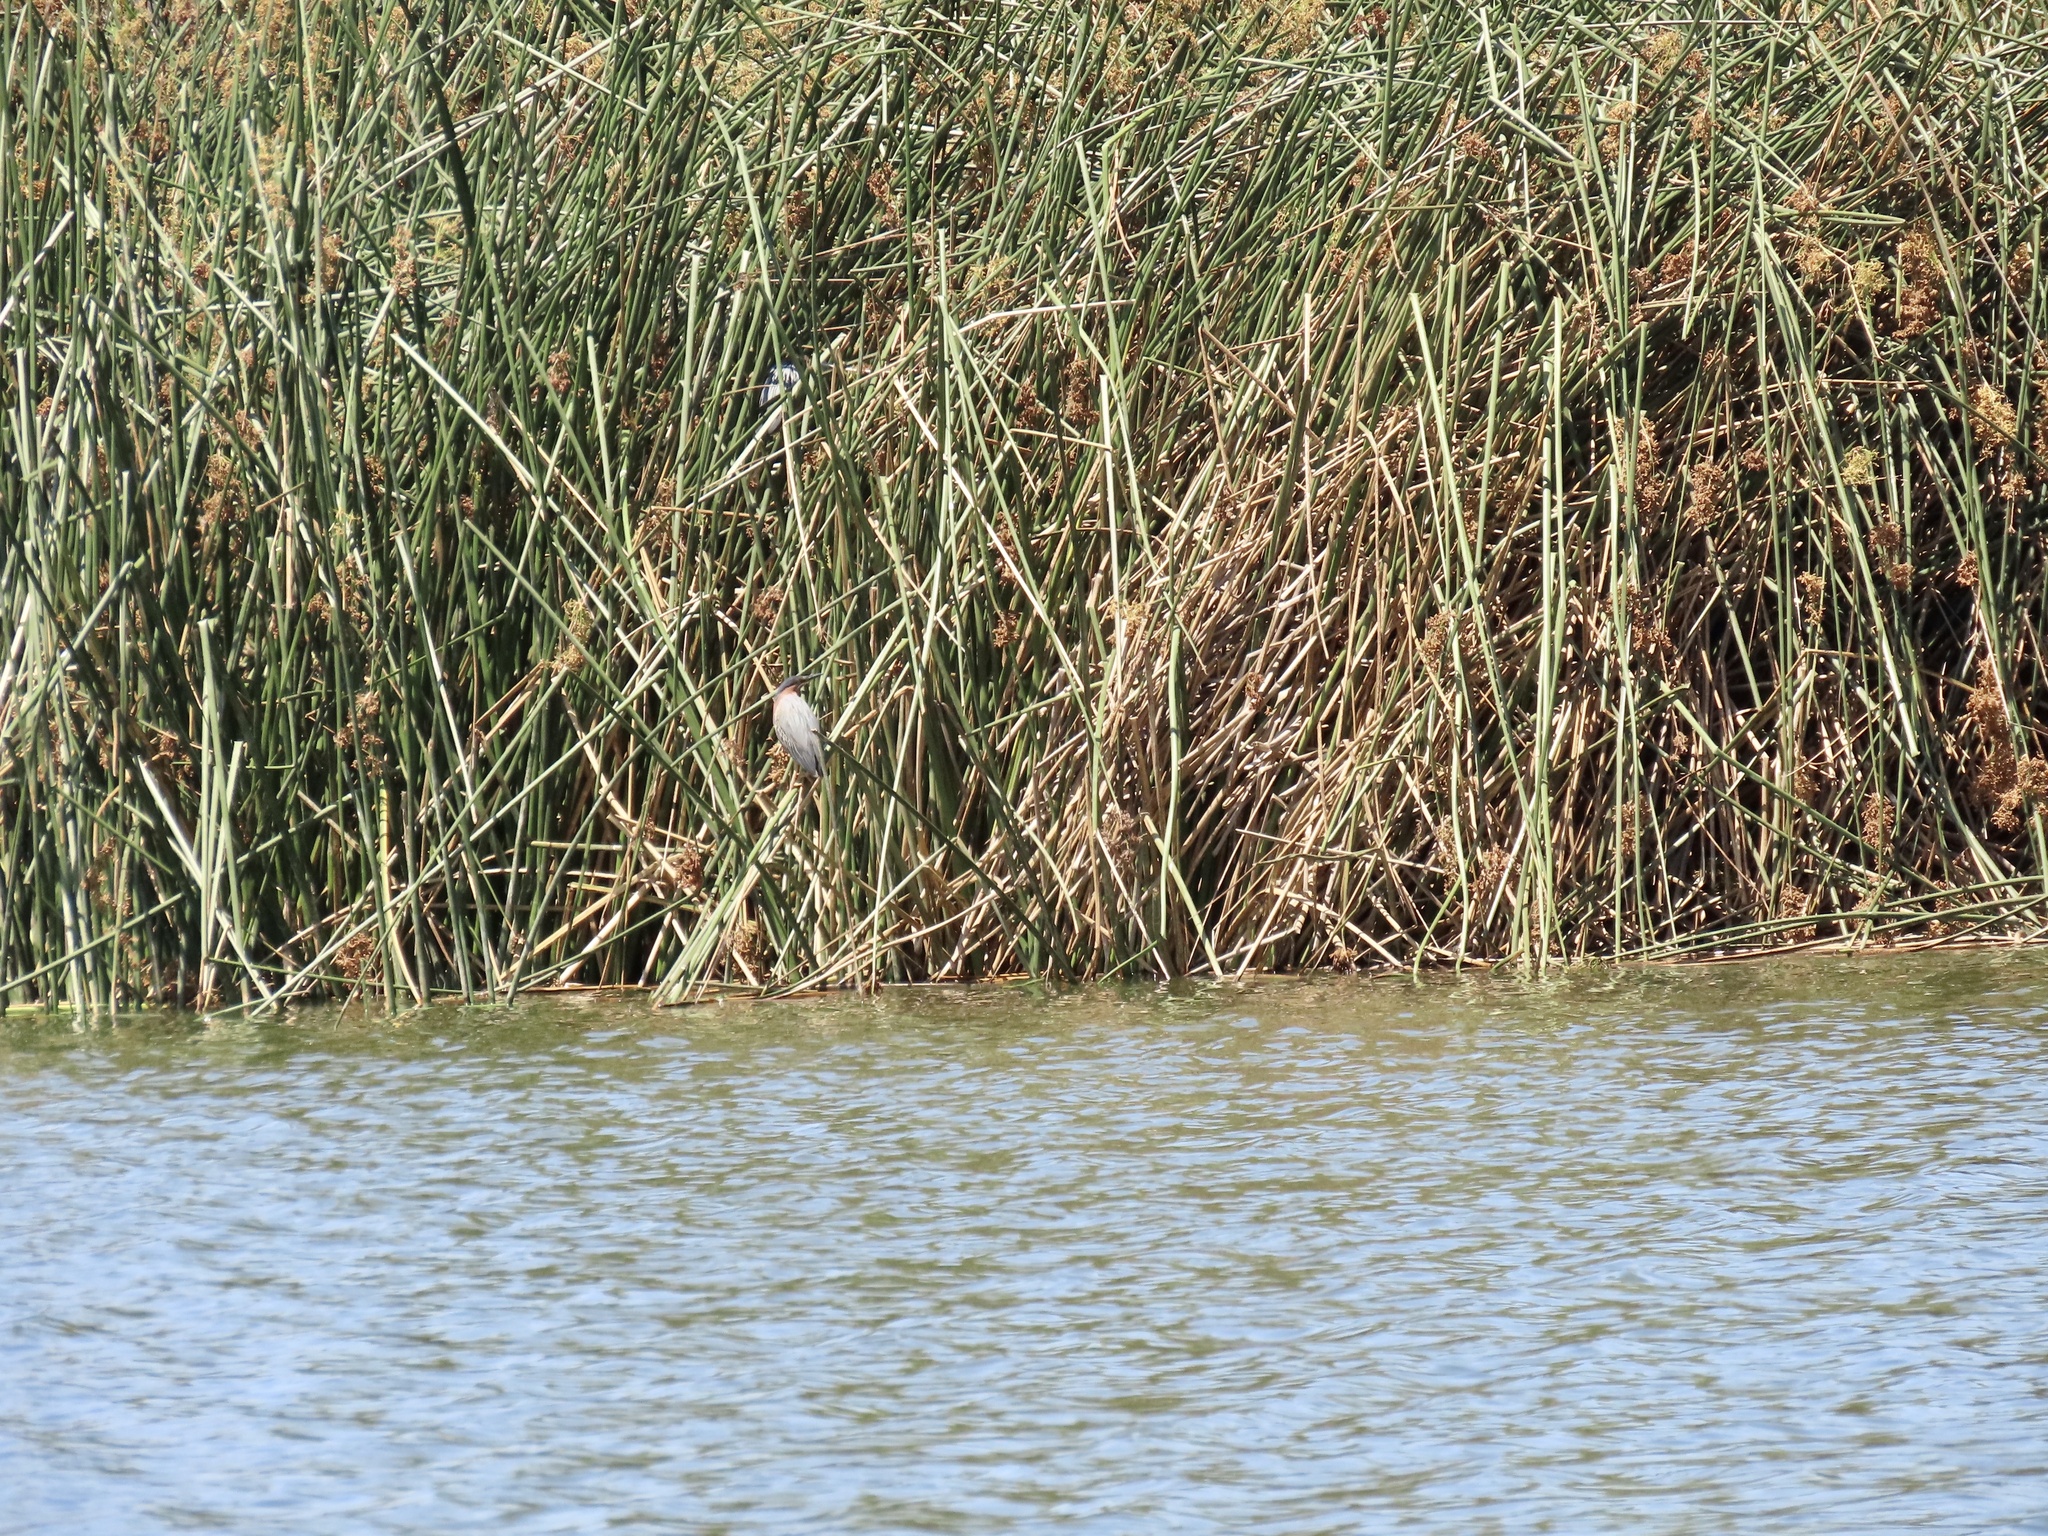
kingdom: Animalia
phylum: Chordata
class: Aves
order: Pelecaniformes
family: Ardeidae
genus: Butorides
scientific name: Butorides virescens
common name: Green heron
